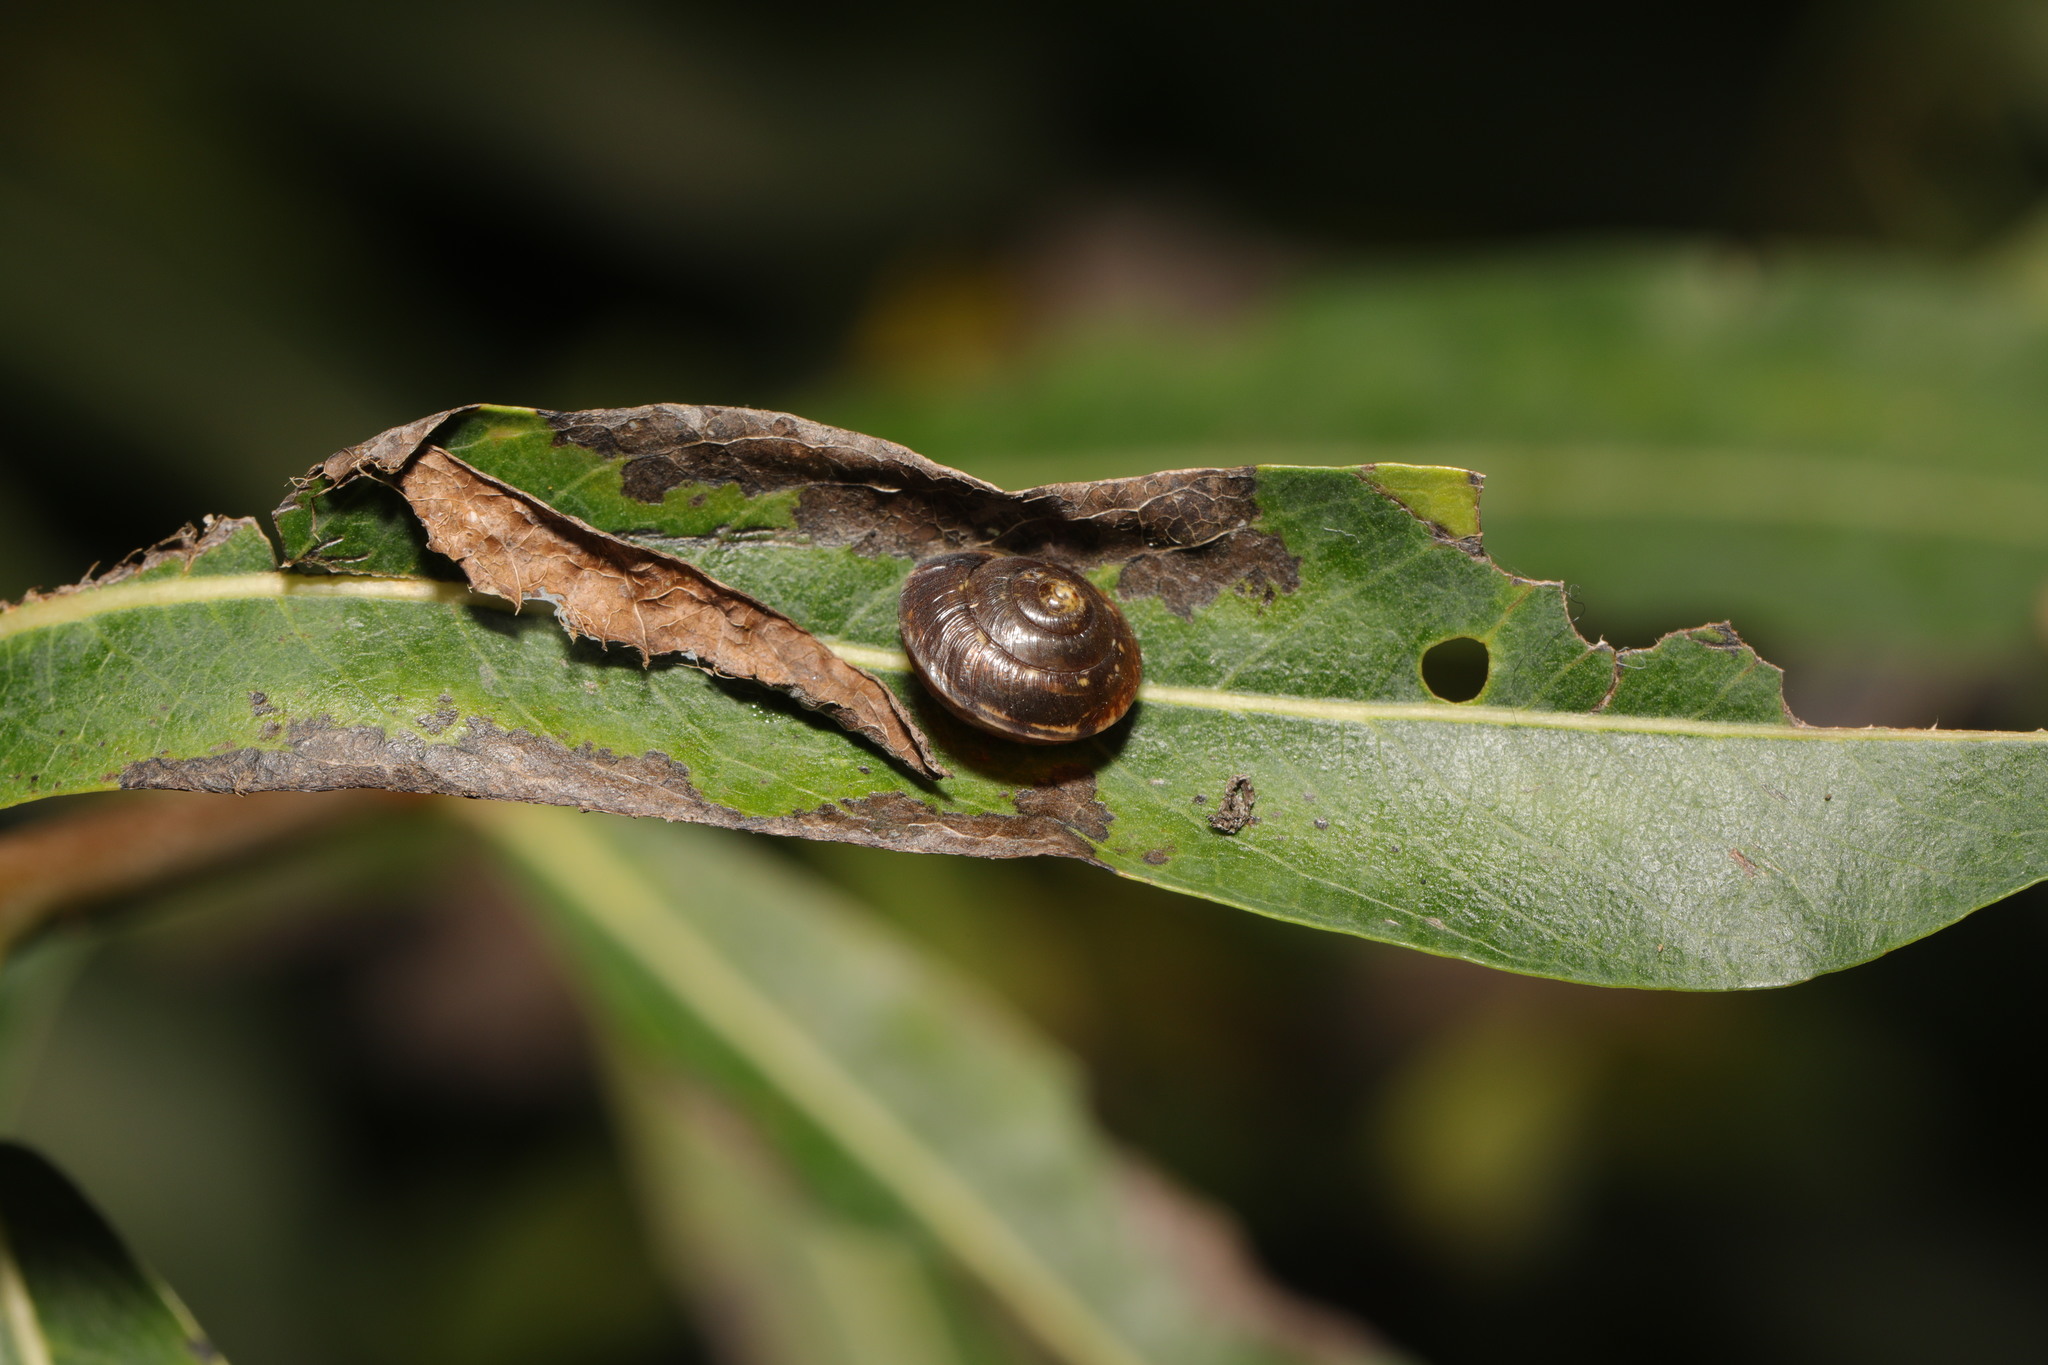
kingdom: Animalia
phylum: Mollusca
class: Gastropoda
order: Stylommatophora
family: Hygromiidae
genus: Hygromia
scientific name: Hygromia cinctella
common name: Girdled snail
